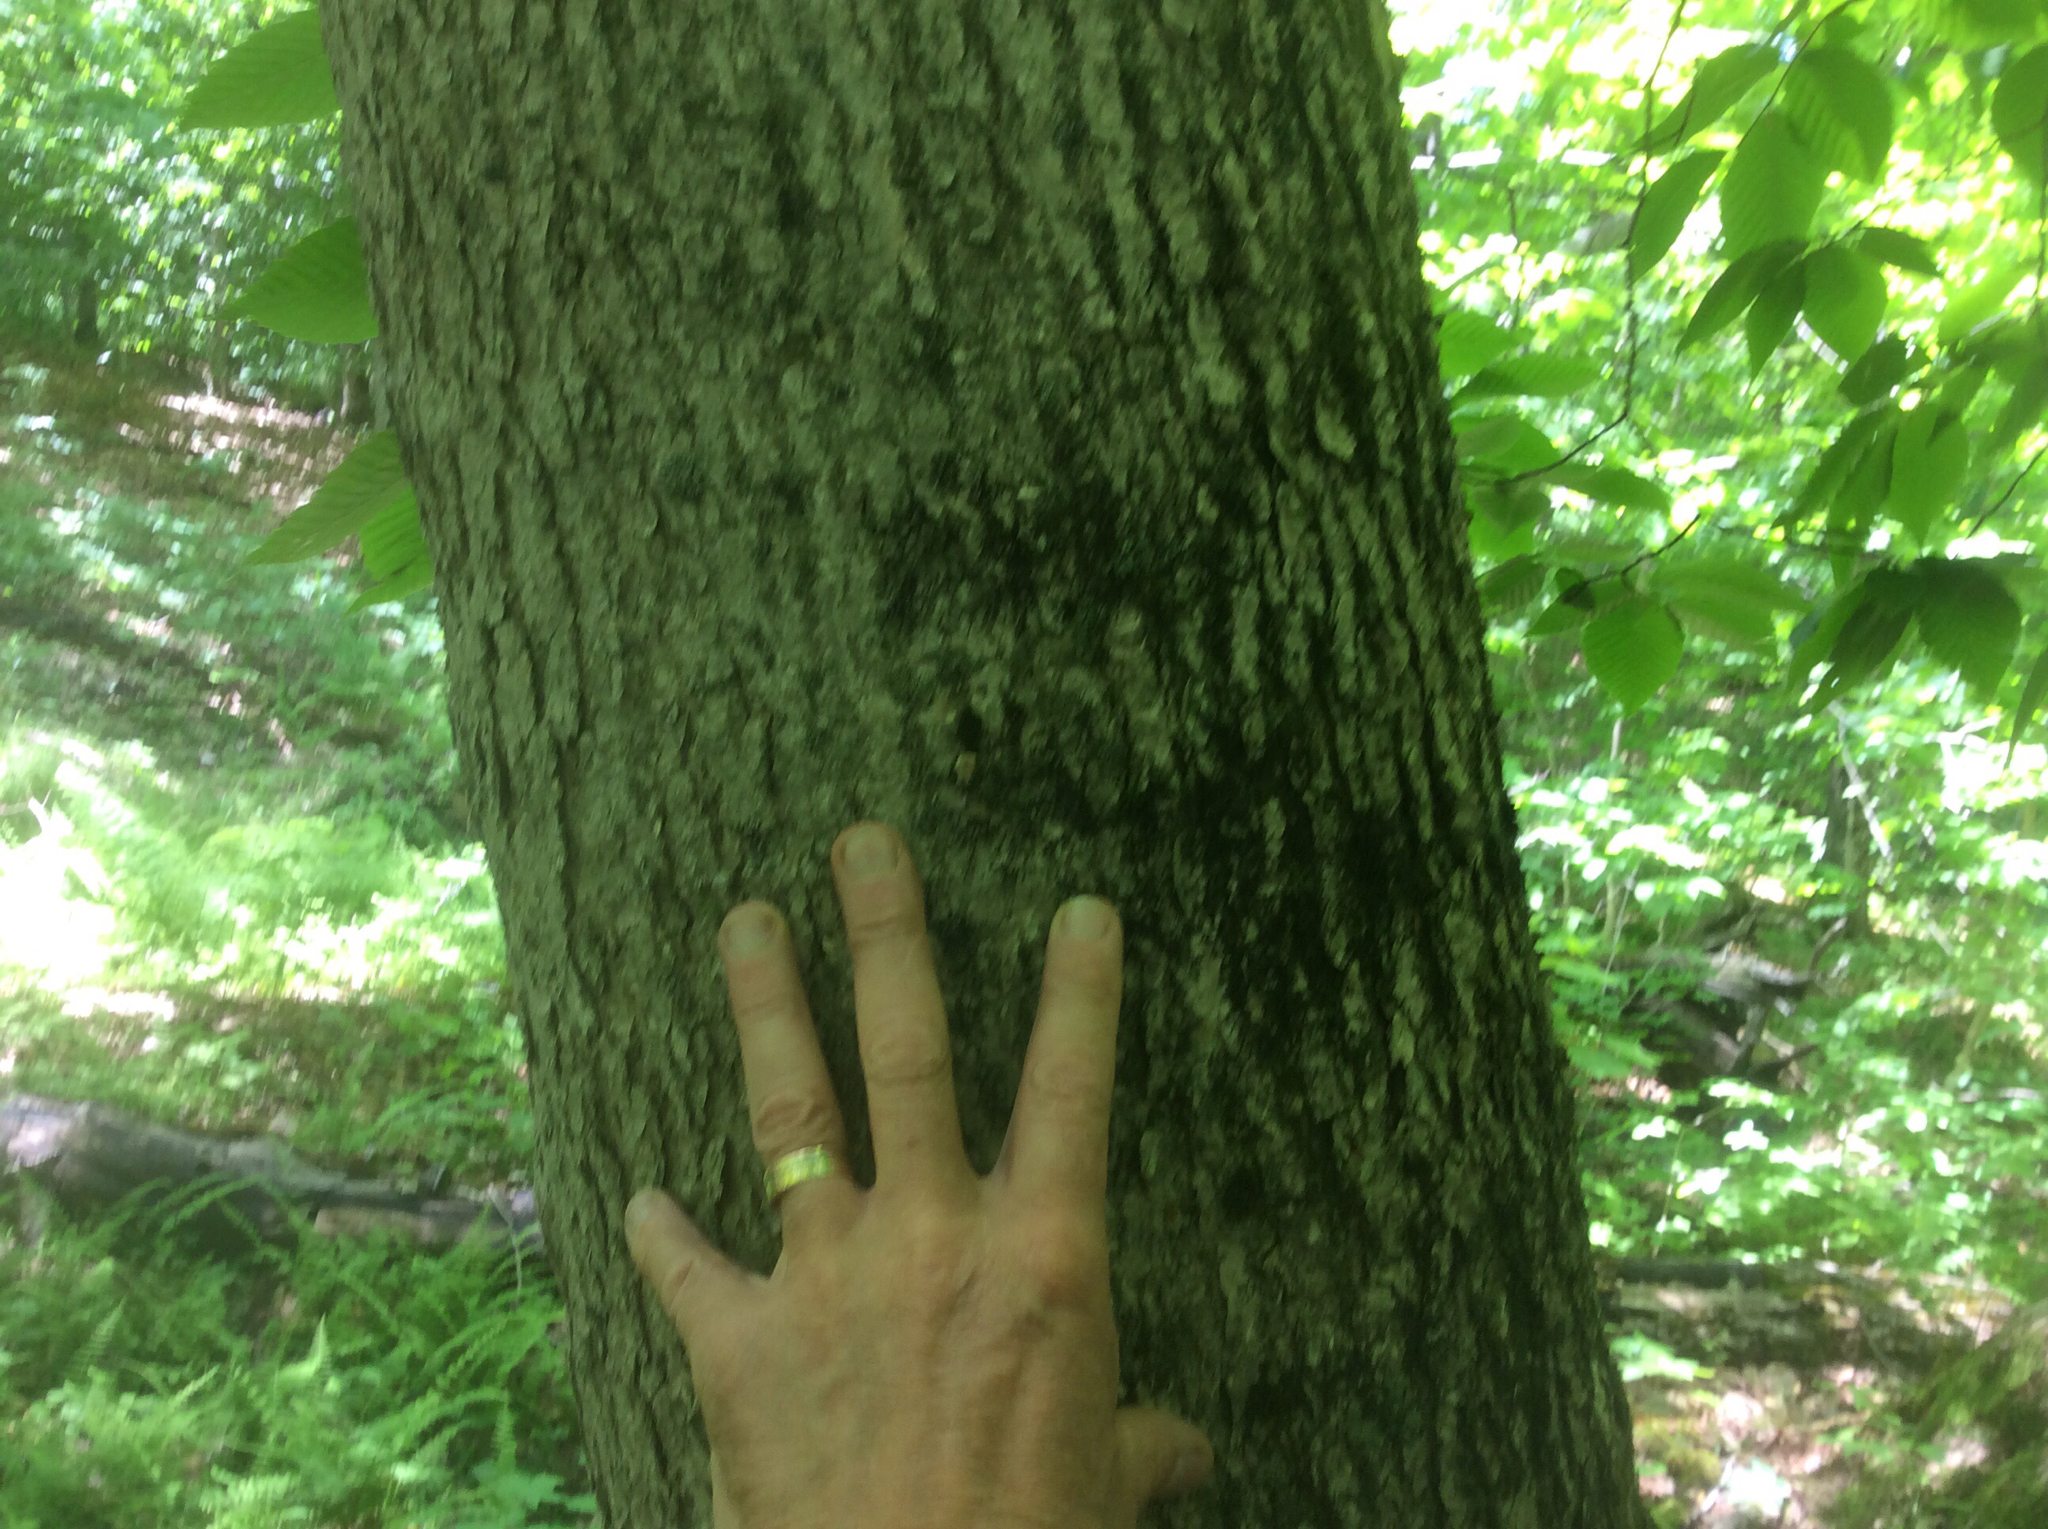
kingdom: Plantae
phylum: Tracheophyta
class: Magnoliopsida
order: Lamiales
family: Oleaceae
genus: Fraxinus
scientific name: Fraxinus nigra
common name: Black ash
